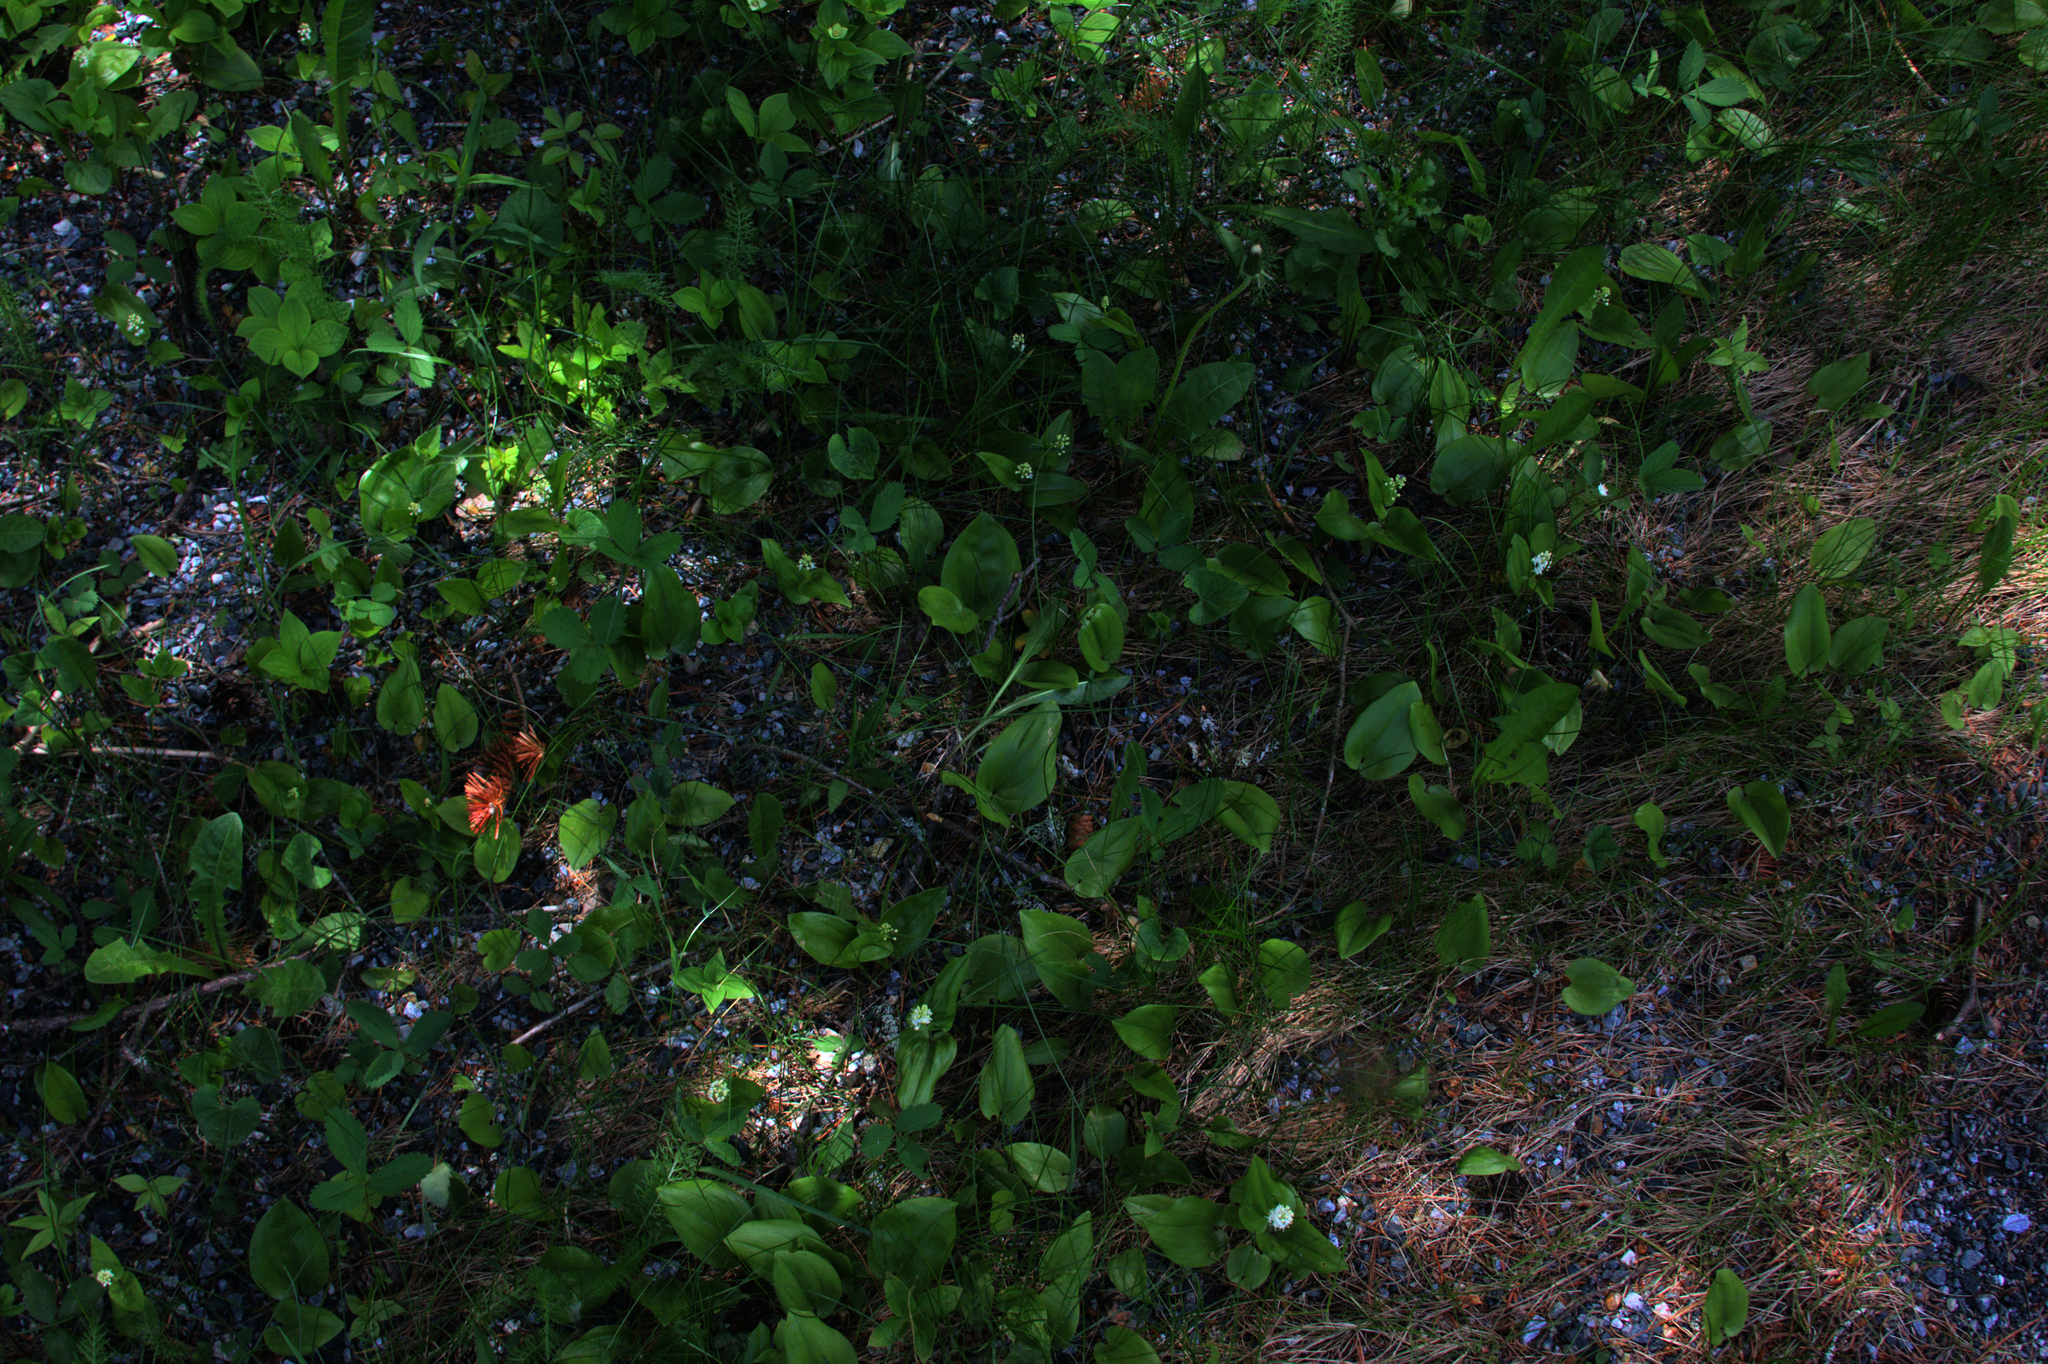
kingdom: Plantae
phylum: Tracheophyta
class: Liliopsida
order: Asparagales
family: Asparagaceae
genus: Maianthemum
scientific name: Maianthemum canadense
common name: False lily-of-the-valley
